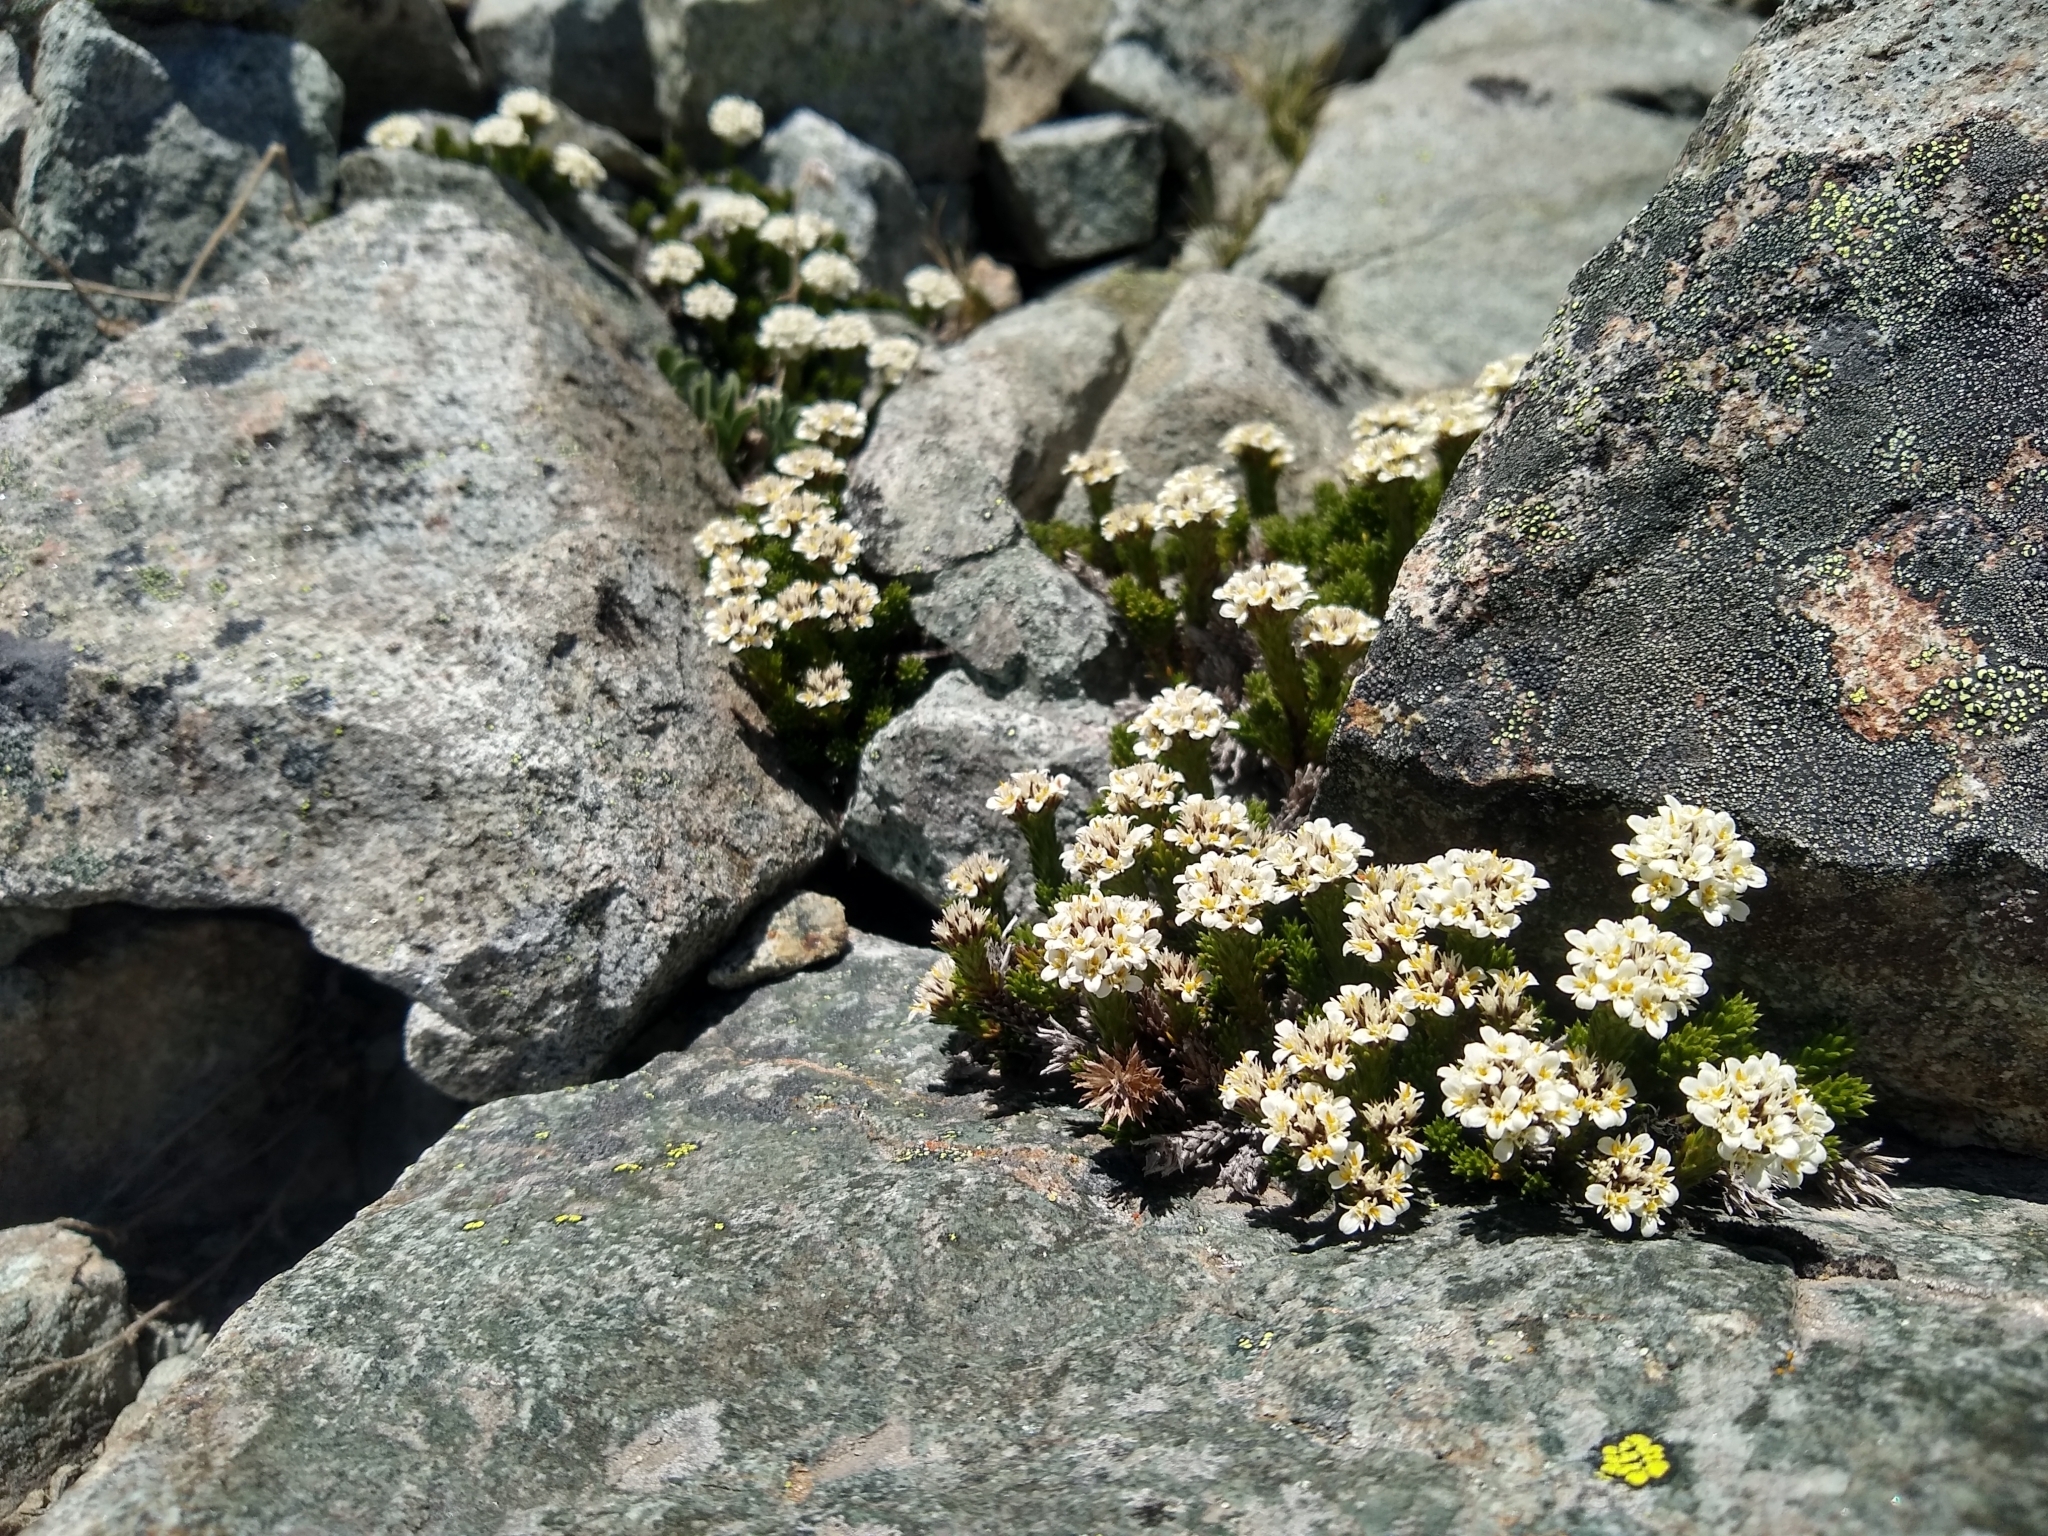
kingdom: Plantae
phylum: Tracheophyta
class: Magnoliopsida
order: Asterales
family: Asteraceae
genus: Nassauvia
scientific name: Nassauvia pygmaea
